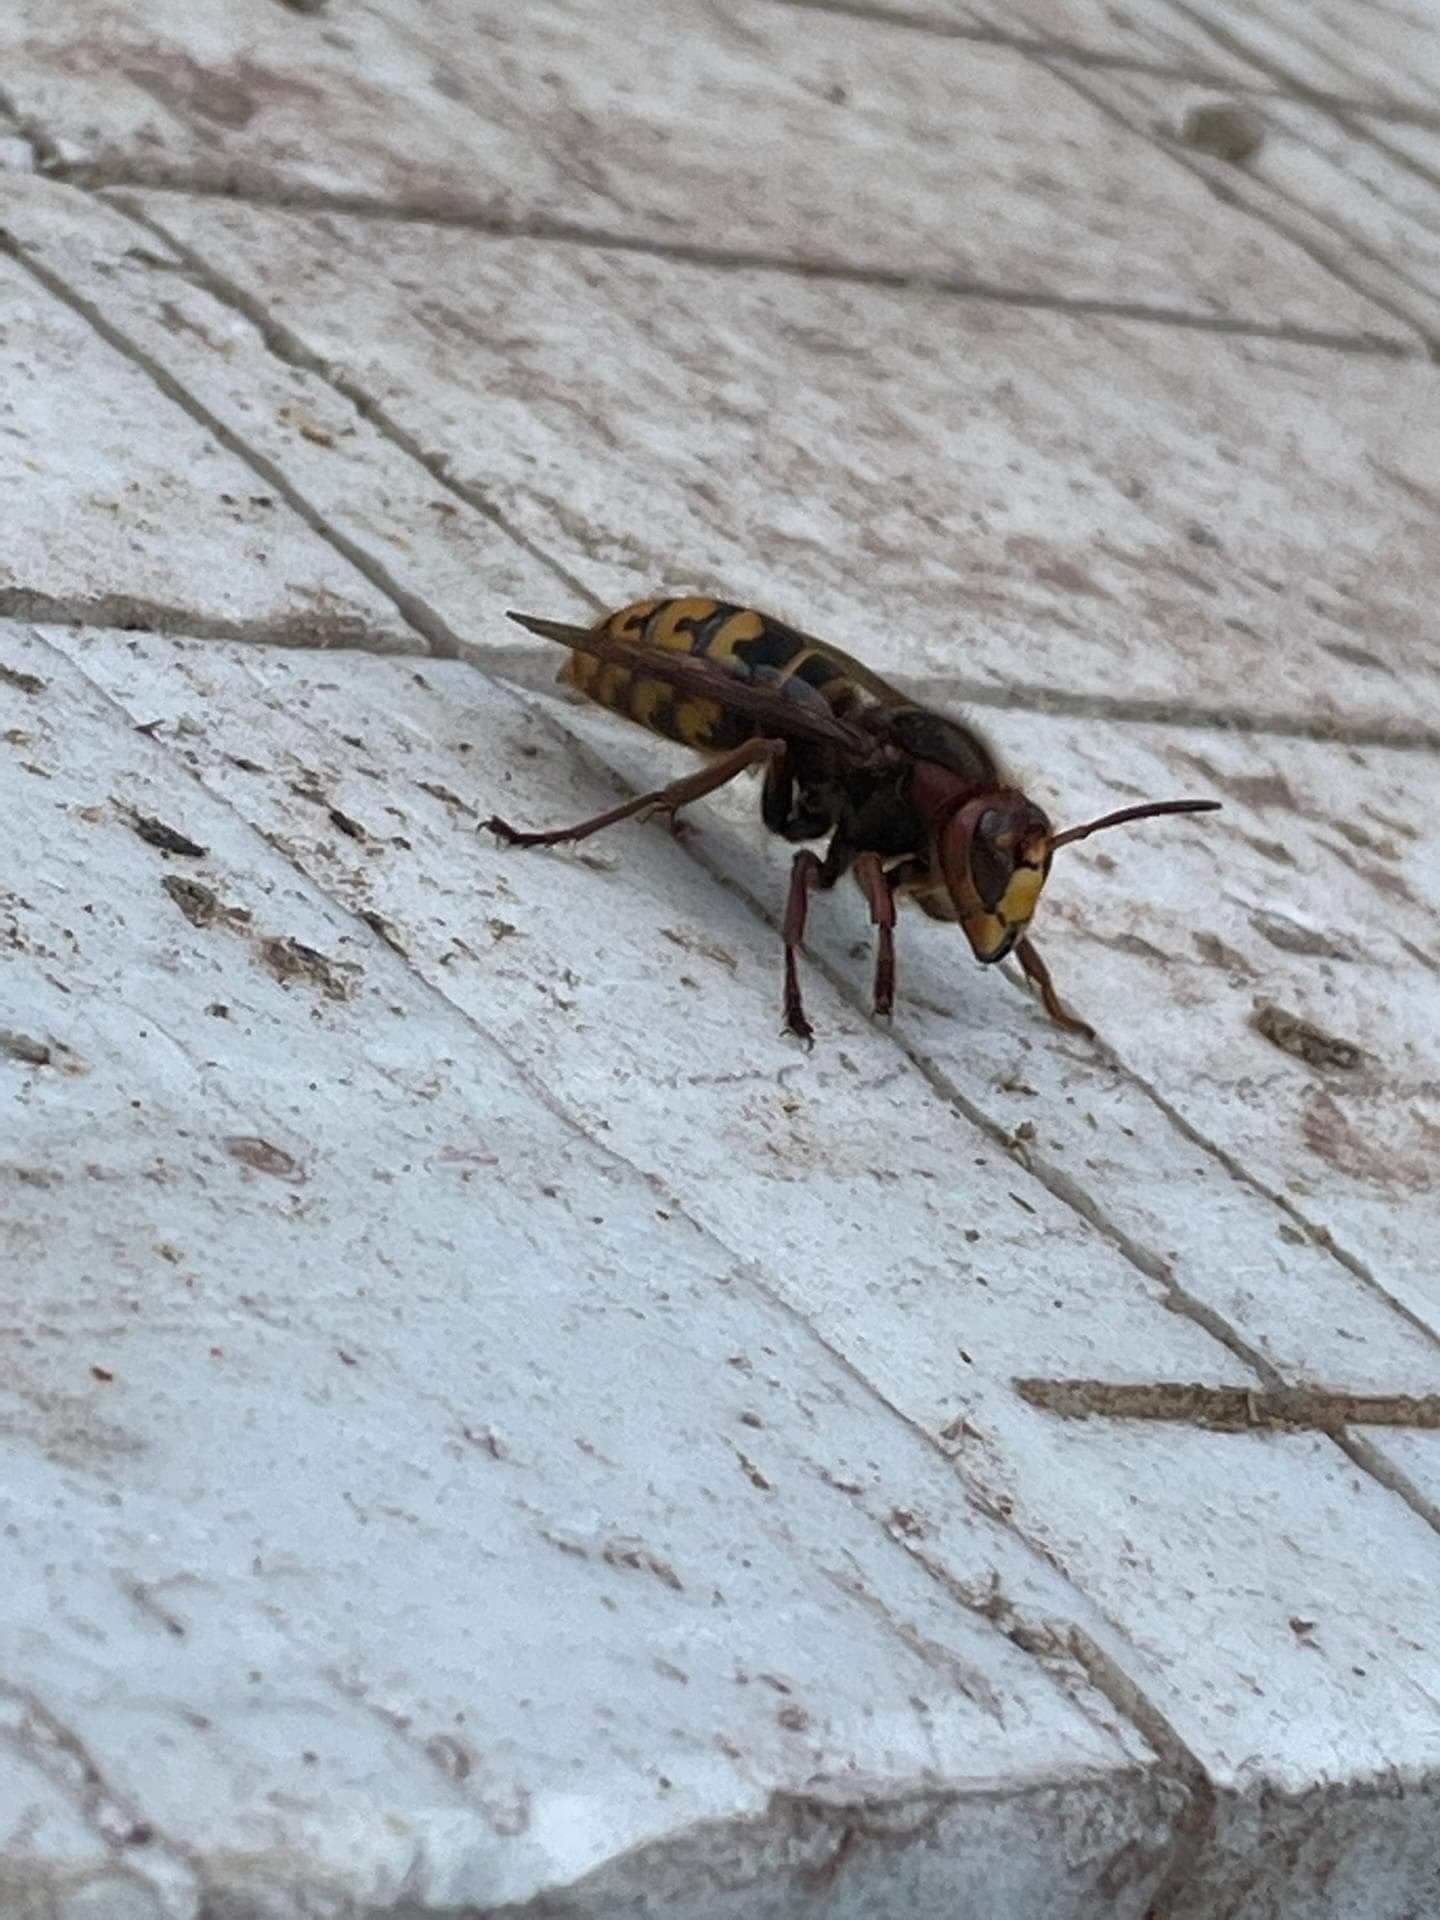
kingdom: Animalia
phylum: Arthropoda
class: Insecta
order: Hymenoptera
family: Vespidae
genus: Vespa
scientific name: Vespa crabro
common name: Hornet
